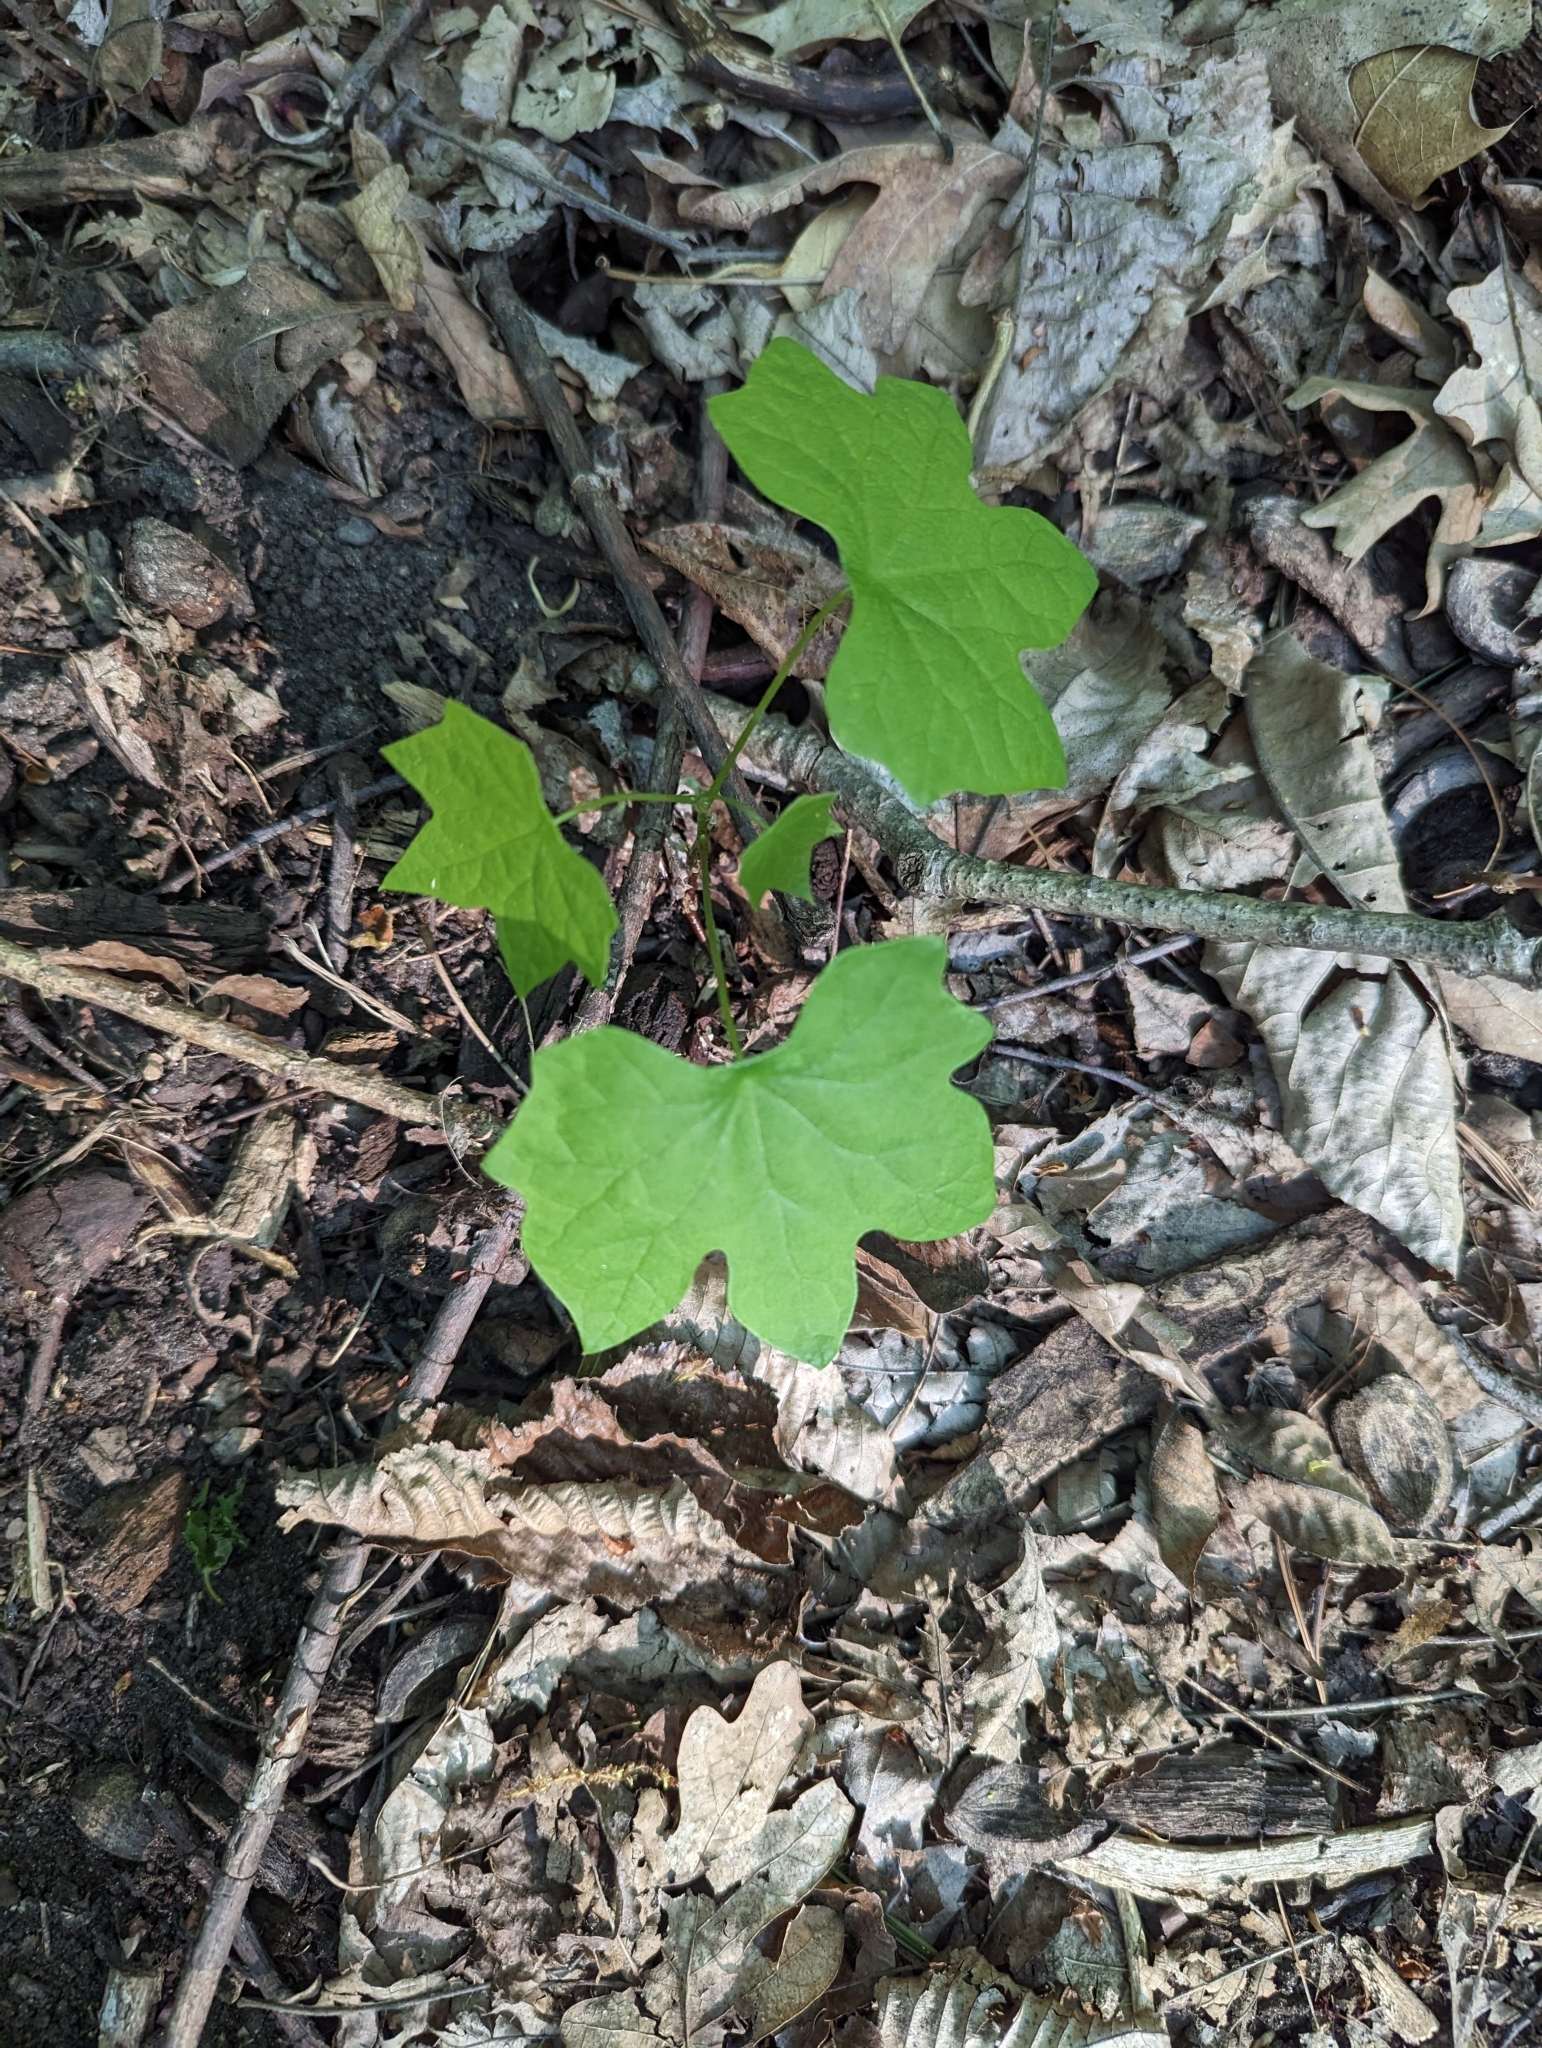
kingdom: Plantae
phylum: Tracheophyta
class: Magnoliopsida
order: Ranunculales
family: Menispermaceae
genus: Menispermum
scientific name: Menispermum canadense
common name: Moonseed
